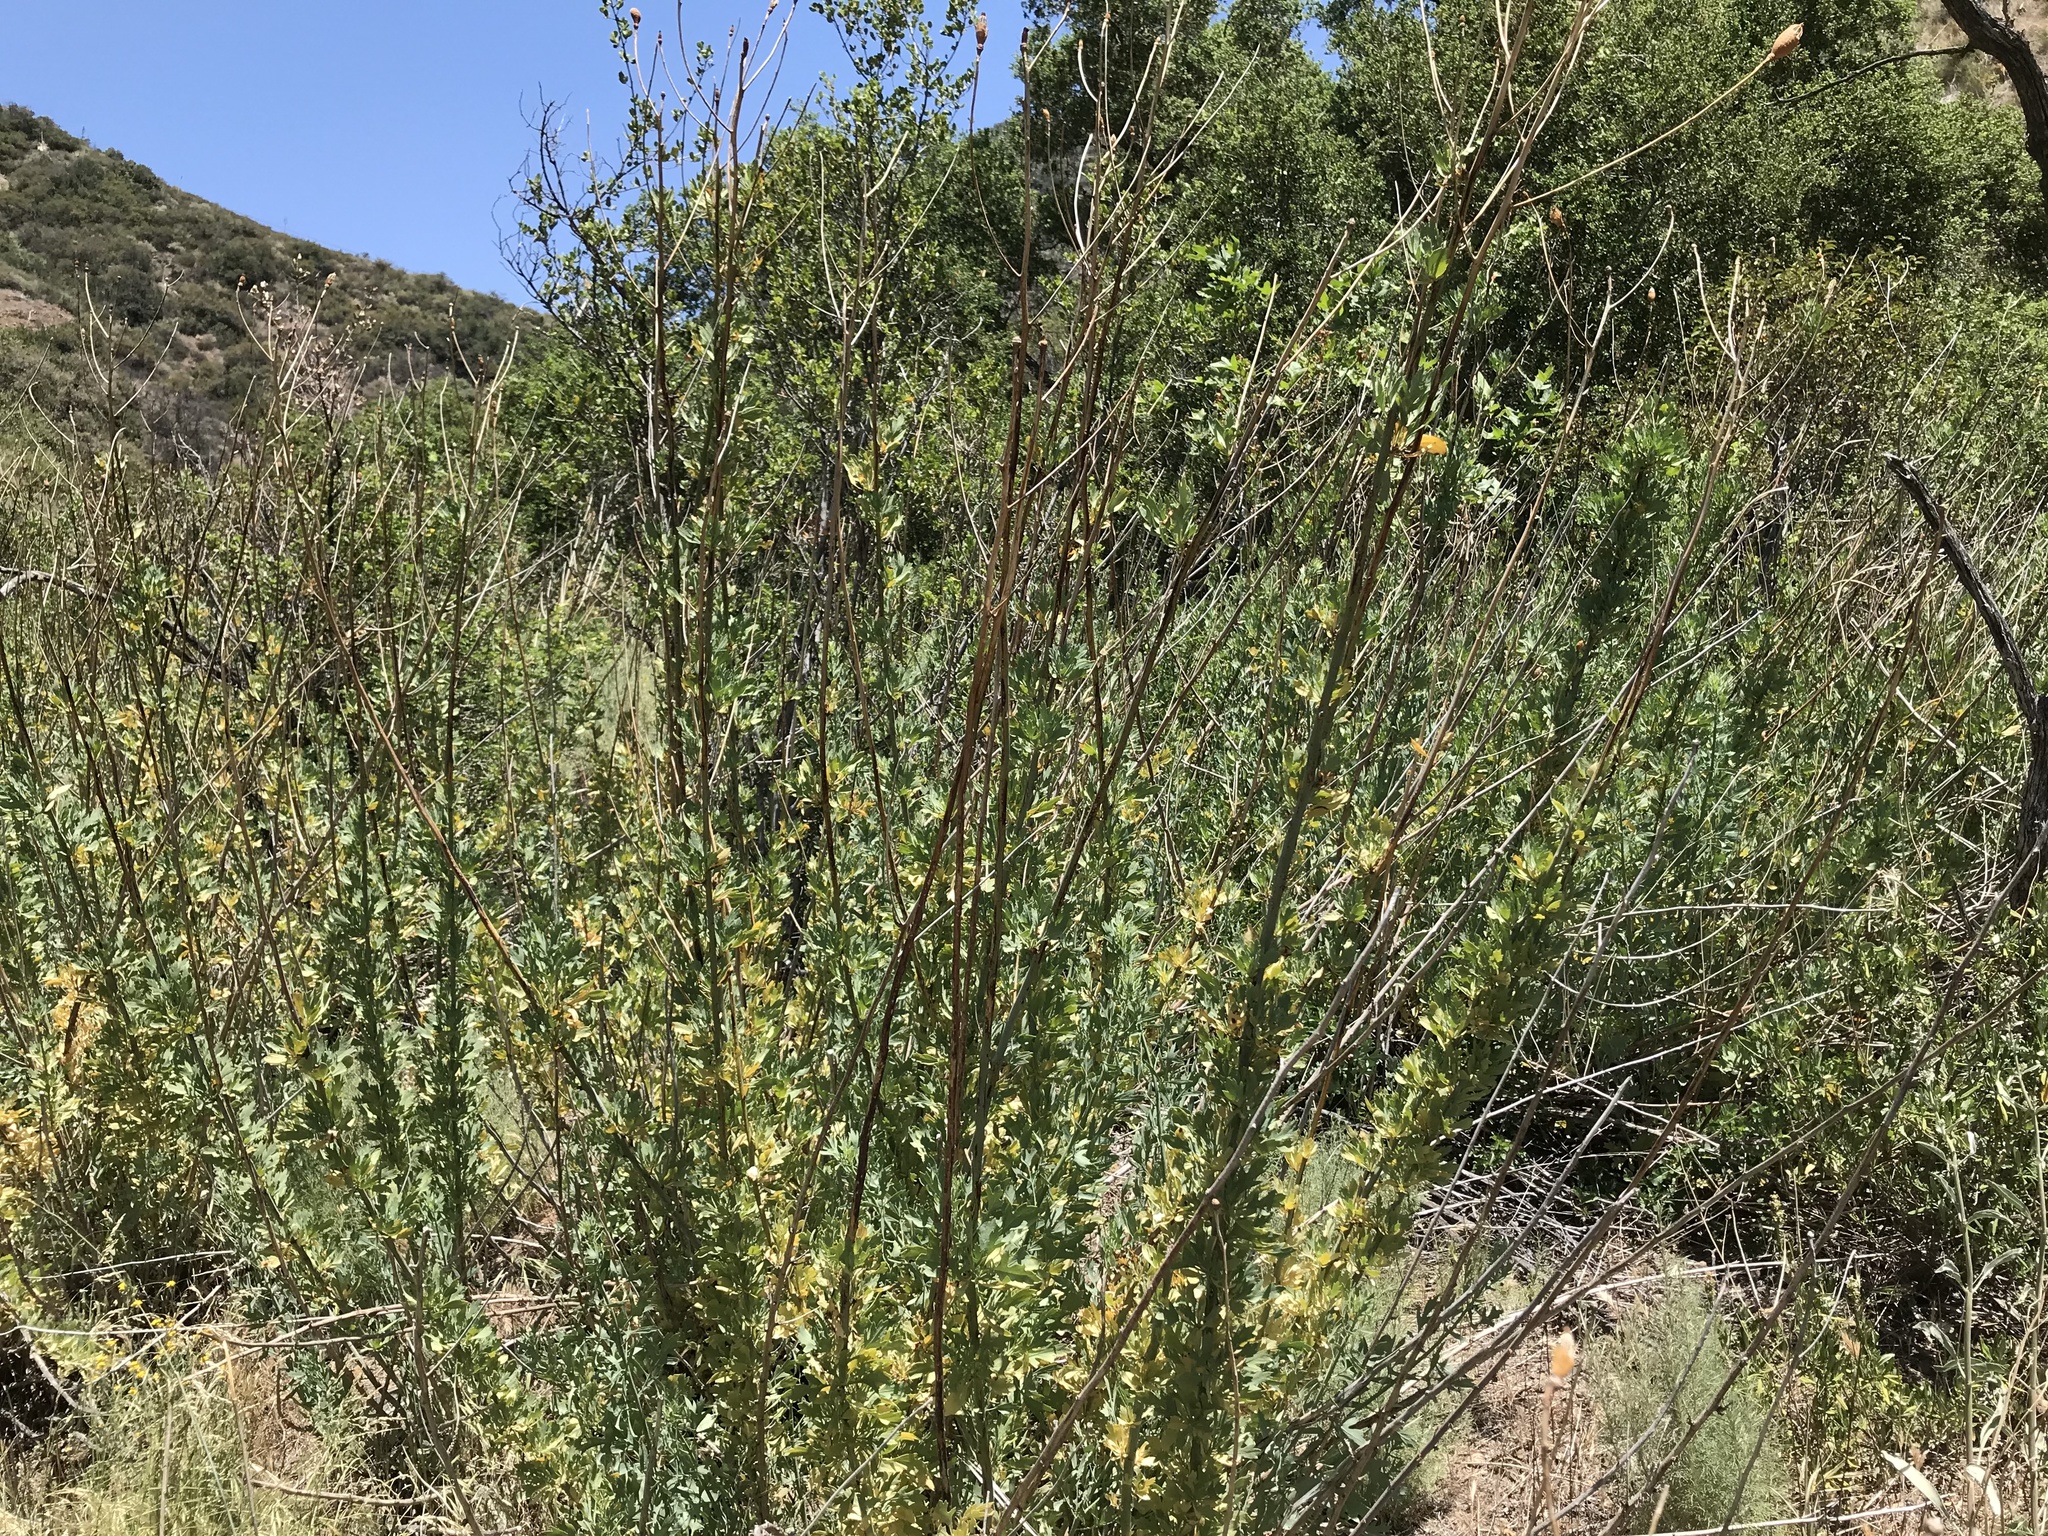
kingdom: Plantae
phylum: Tracheophyta
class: Magnoliopsida
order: Ranunculales
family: Papaveraceae
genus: Romneya
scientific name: Romneya coulteri
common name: California tree-poppy
